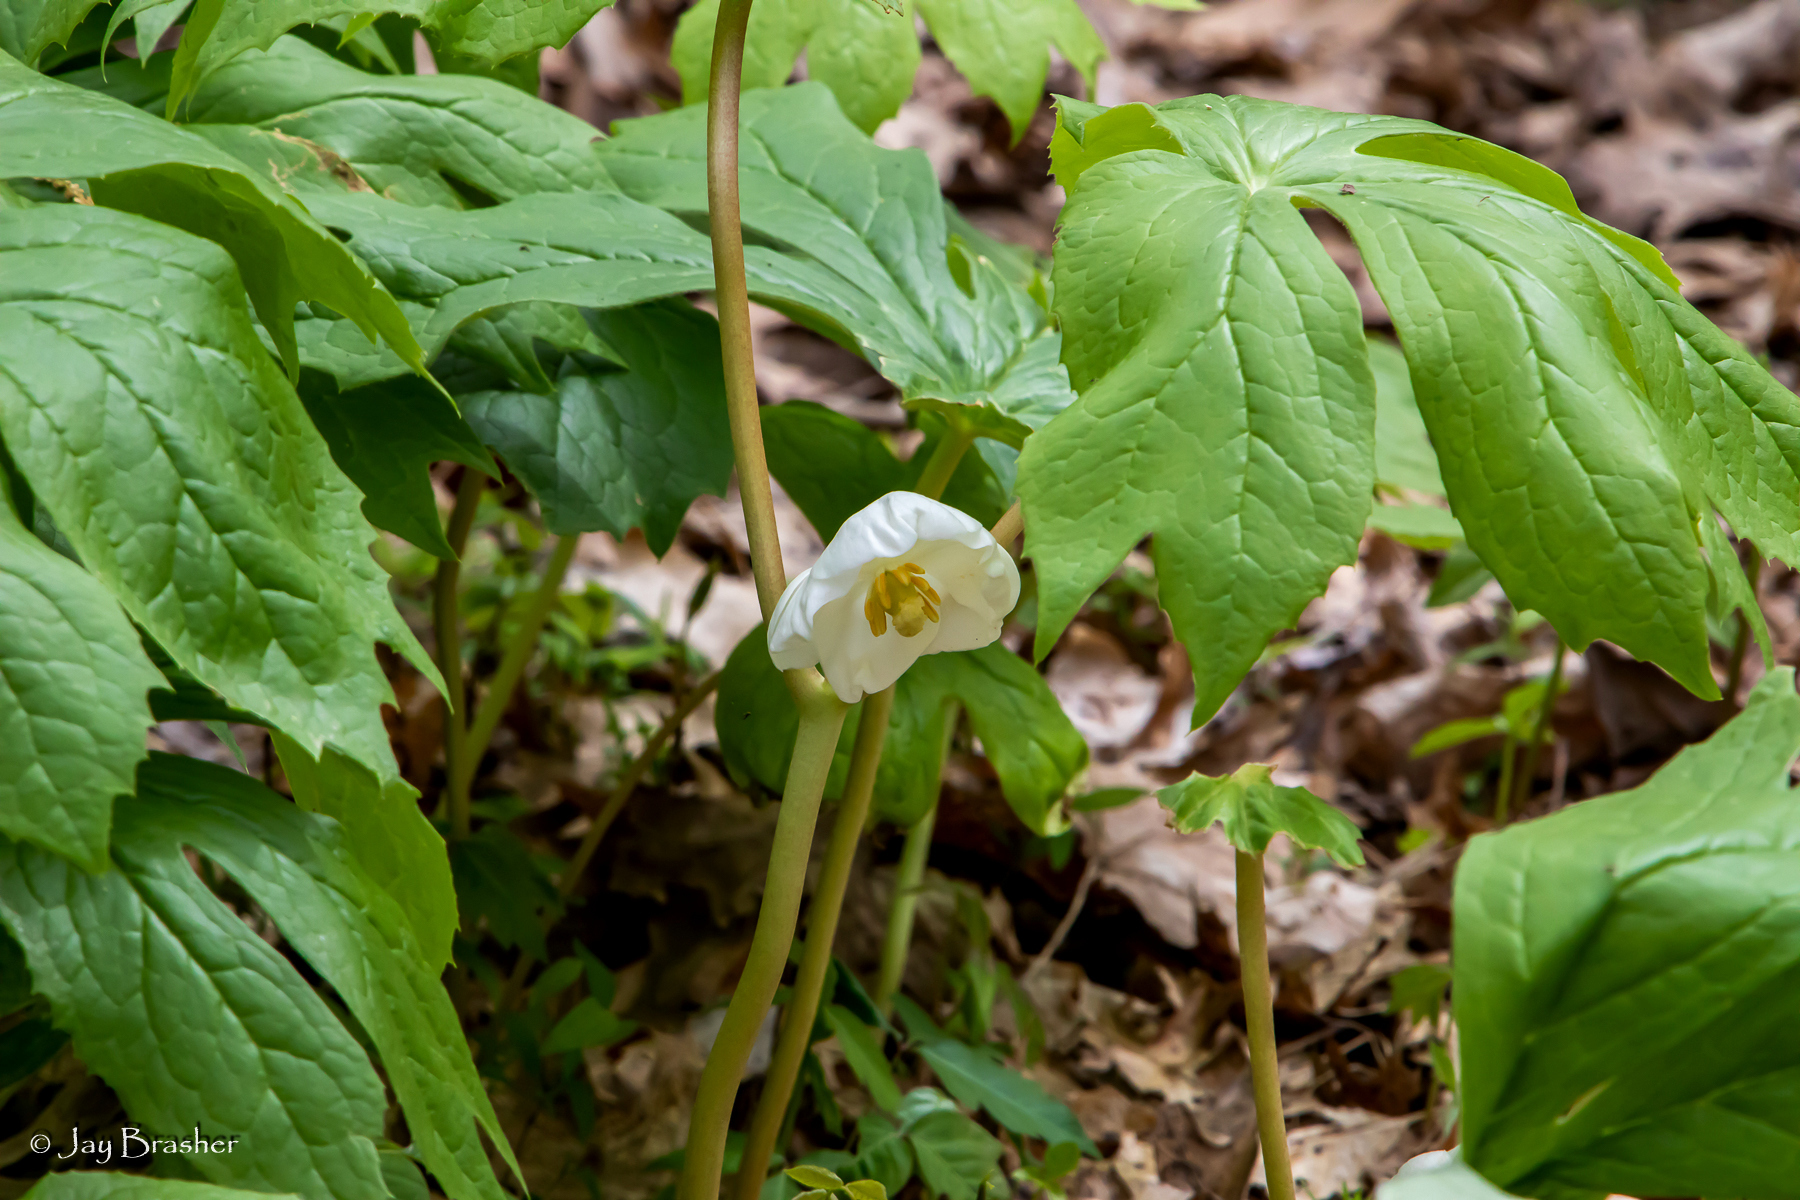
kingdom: Plantae
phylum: Tracheophyta
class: Magnoliopsida
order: Ranunculales
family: Berberidaceae
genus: Podophyllum
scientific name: Podophyllum peltatum
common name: Wild mandrake
